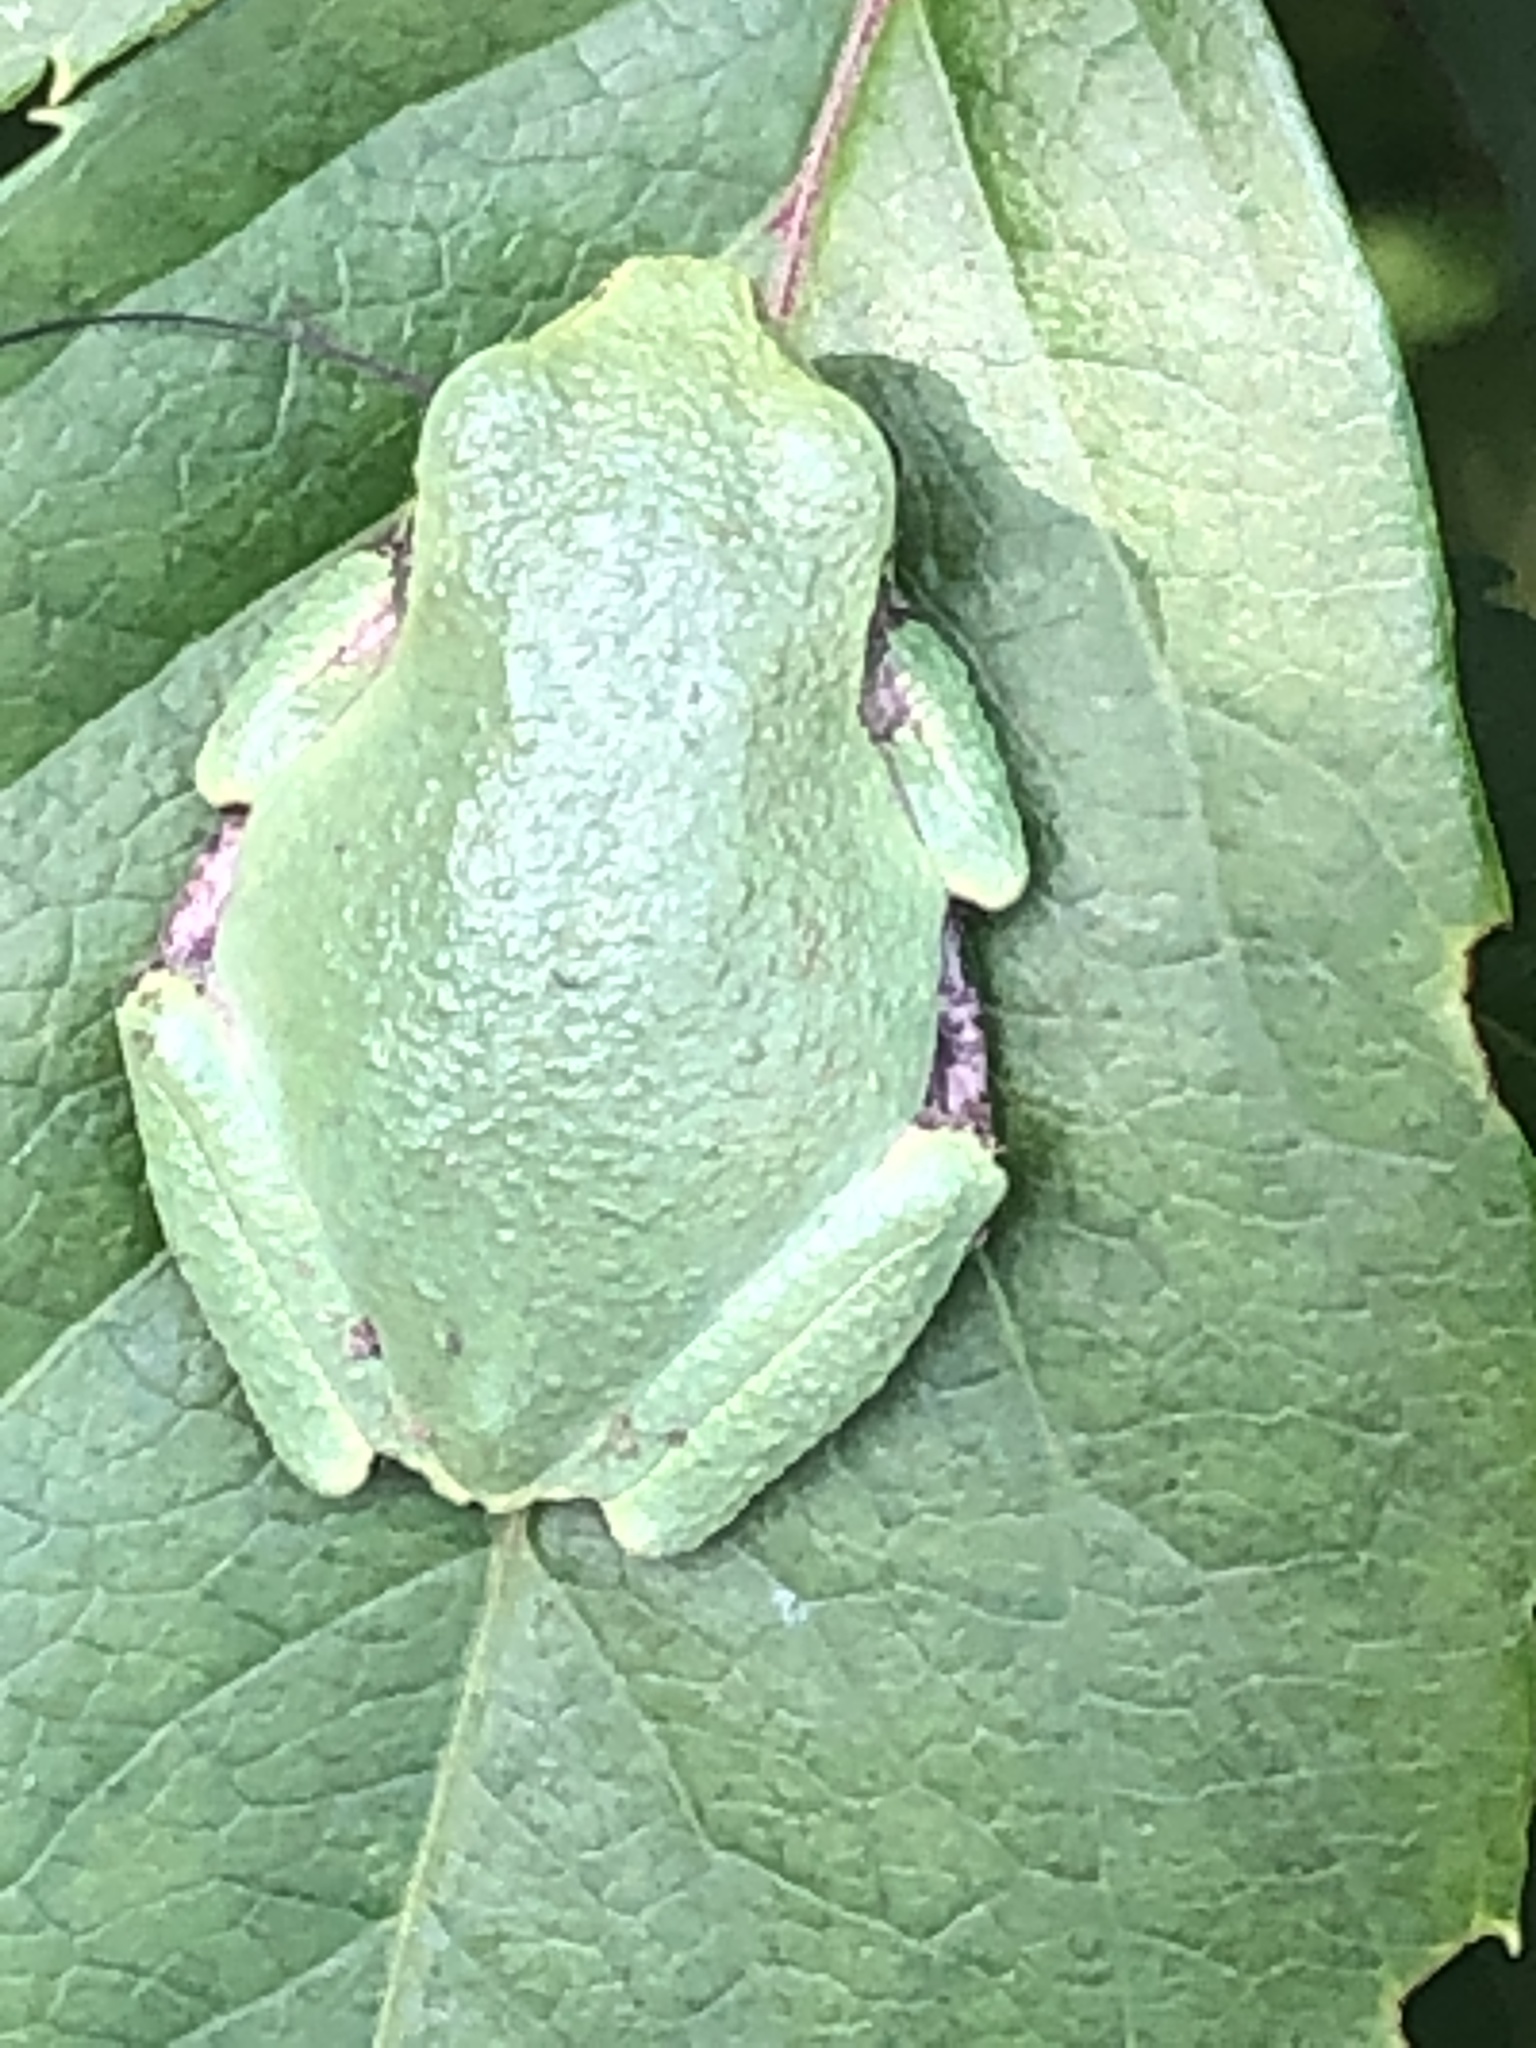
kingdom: Animalia
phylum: Chordata
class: Amphibia
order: Anura
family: Hylidae
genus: Dryophytes
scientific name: Dryophytes versicolor
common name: Gray treefrog
